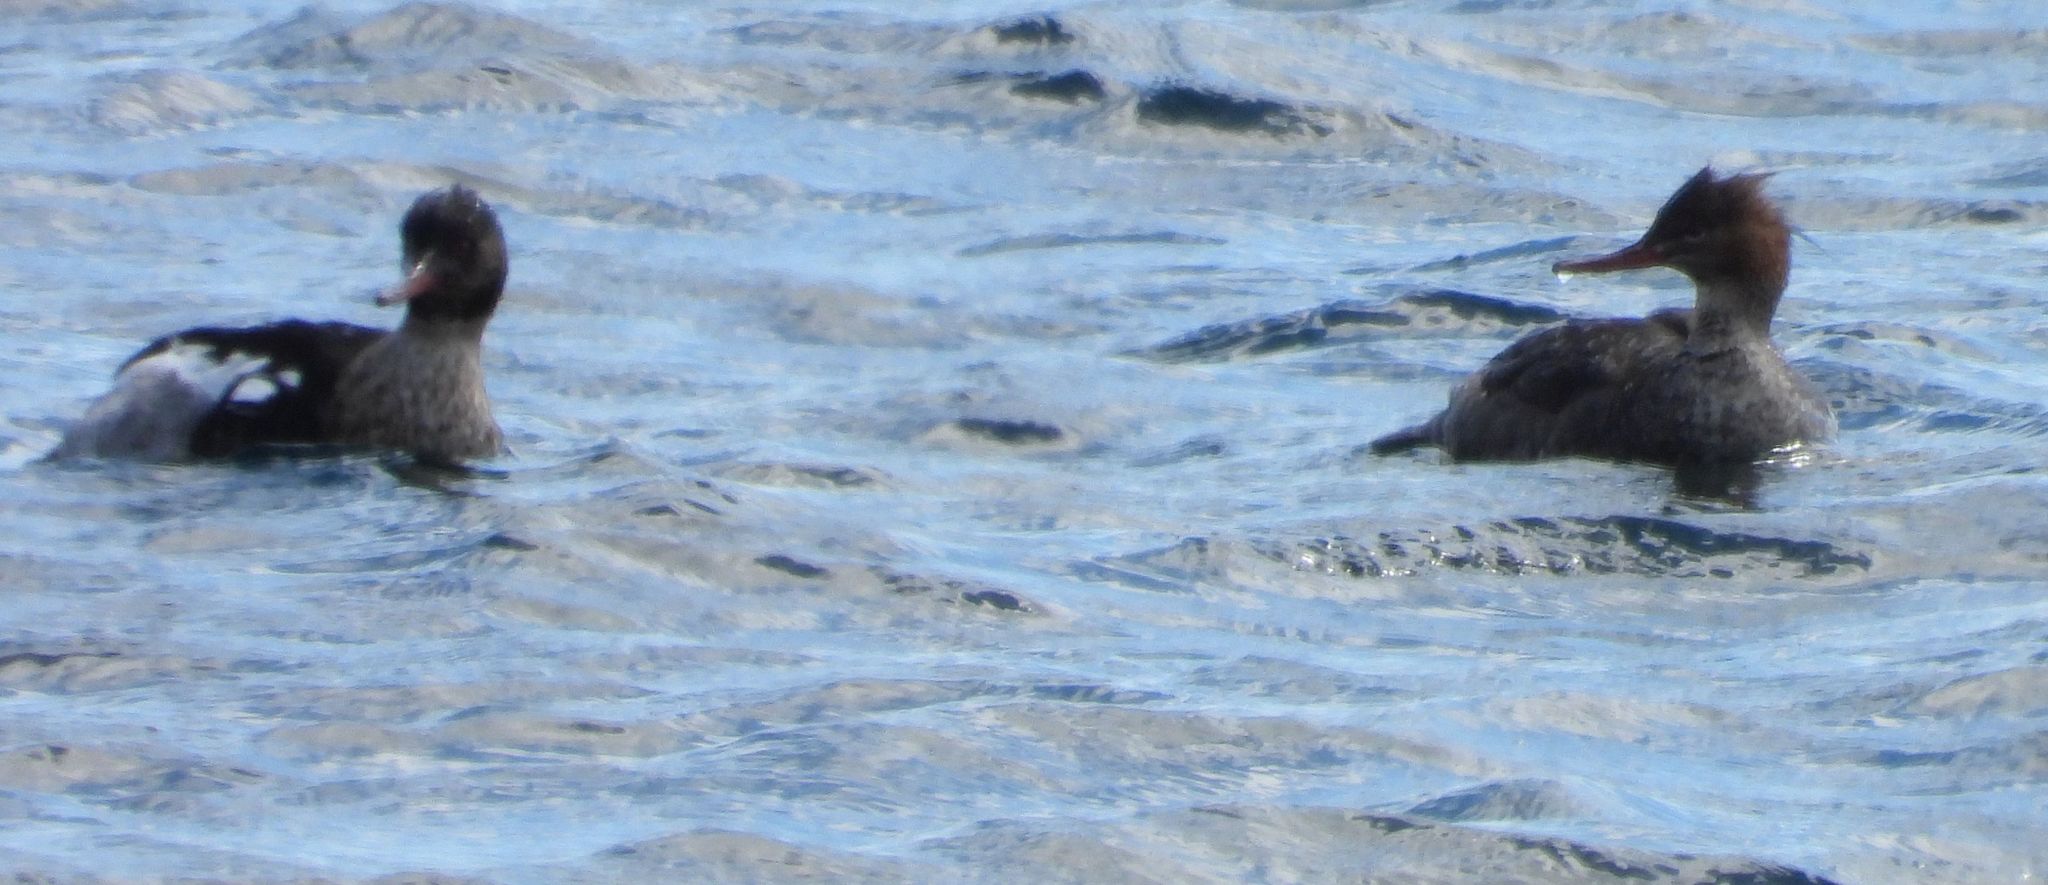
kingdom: Animalia
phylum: Chordata
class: Aves
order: Anseriformes
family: Anatidae
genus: Mergus
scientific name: Mergus serrator
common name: Red-breasted merganser
